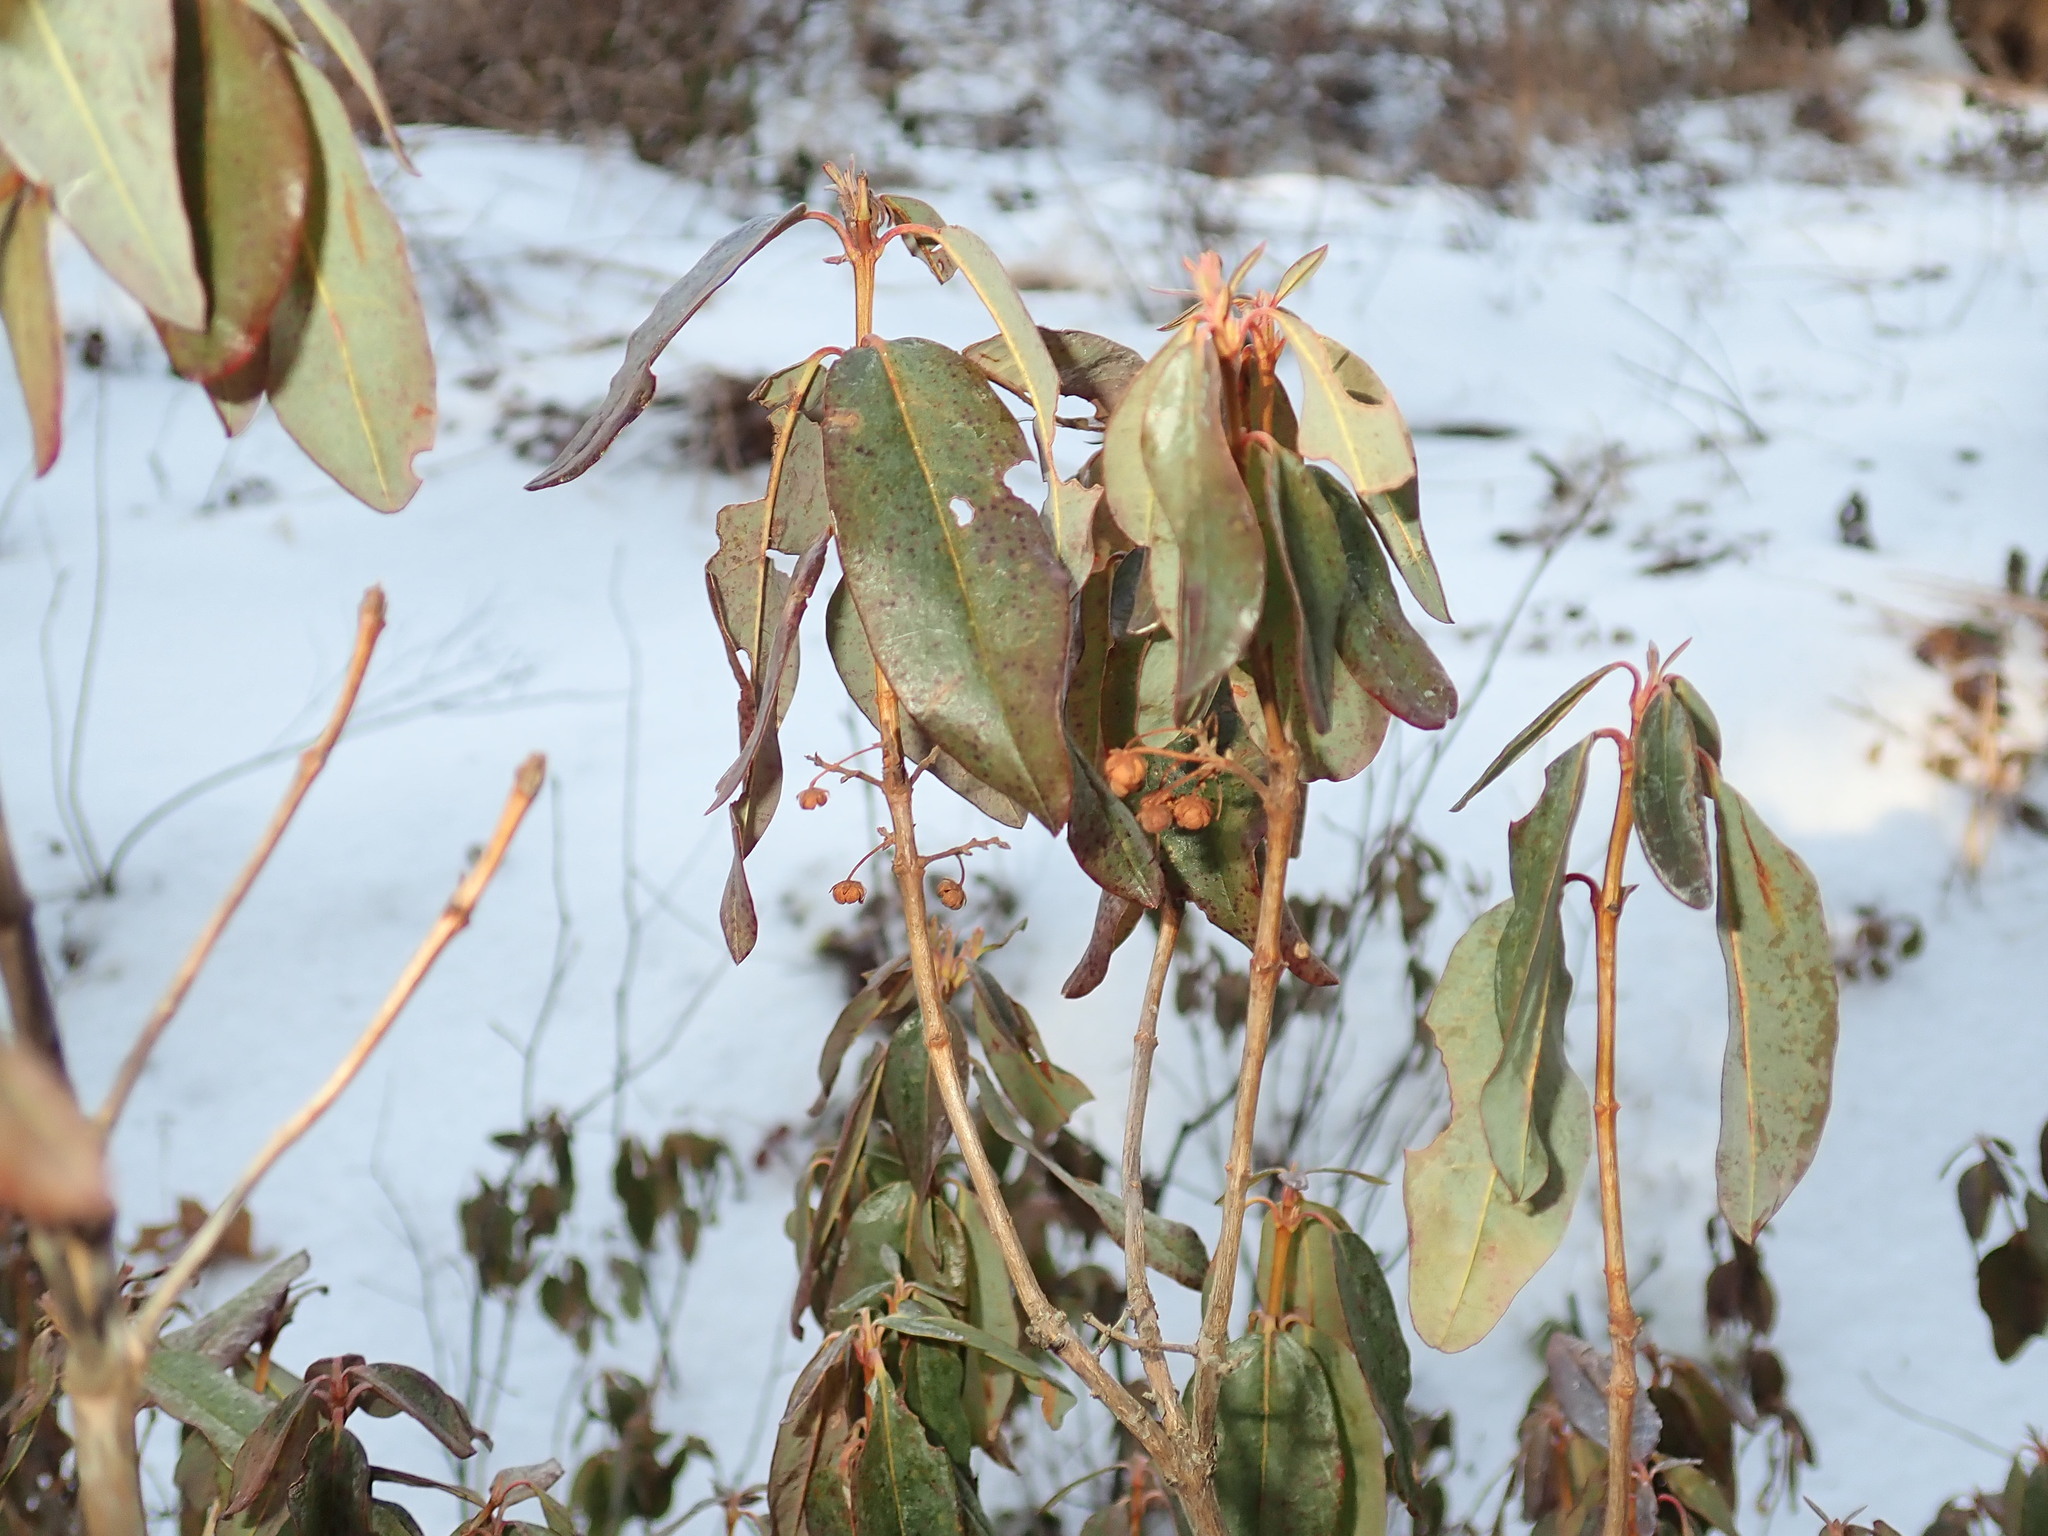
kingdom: Plantae
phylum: Tracheophyta
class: Magnoliopsida
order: Ericales
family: Ericaceae
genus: Kalmia
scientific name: Kalmia angustifolia
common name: Sheep-laurel
